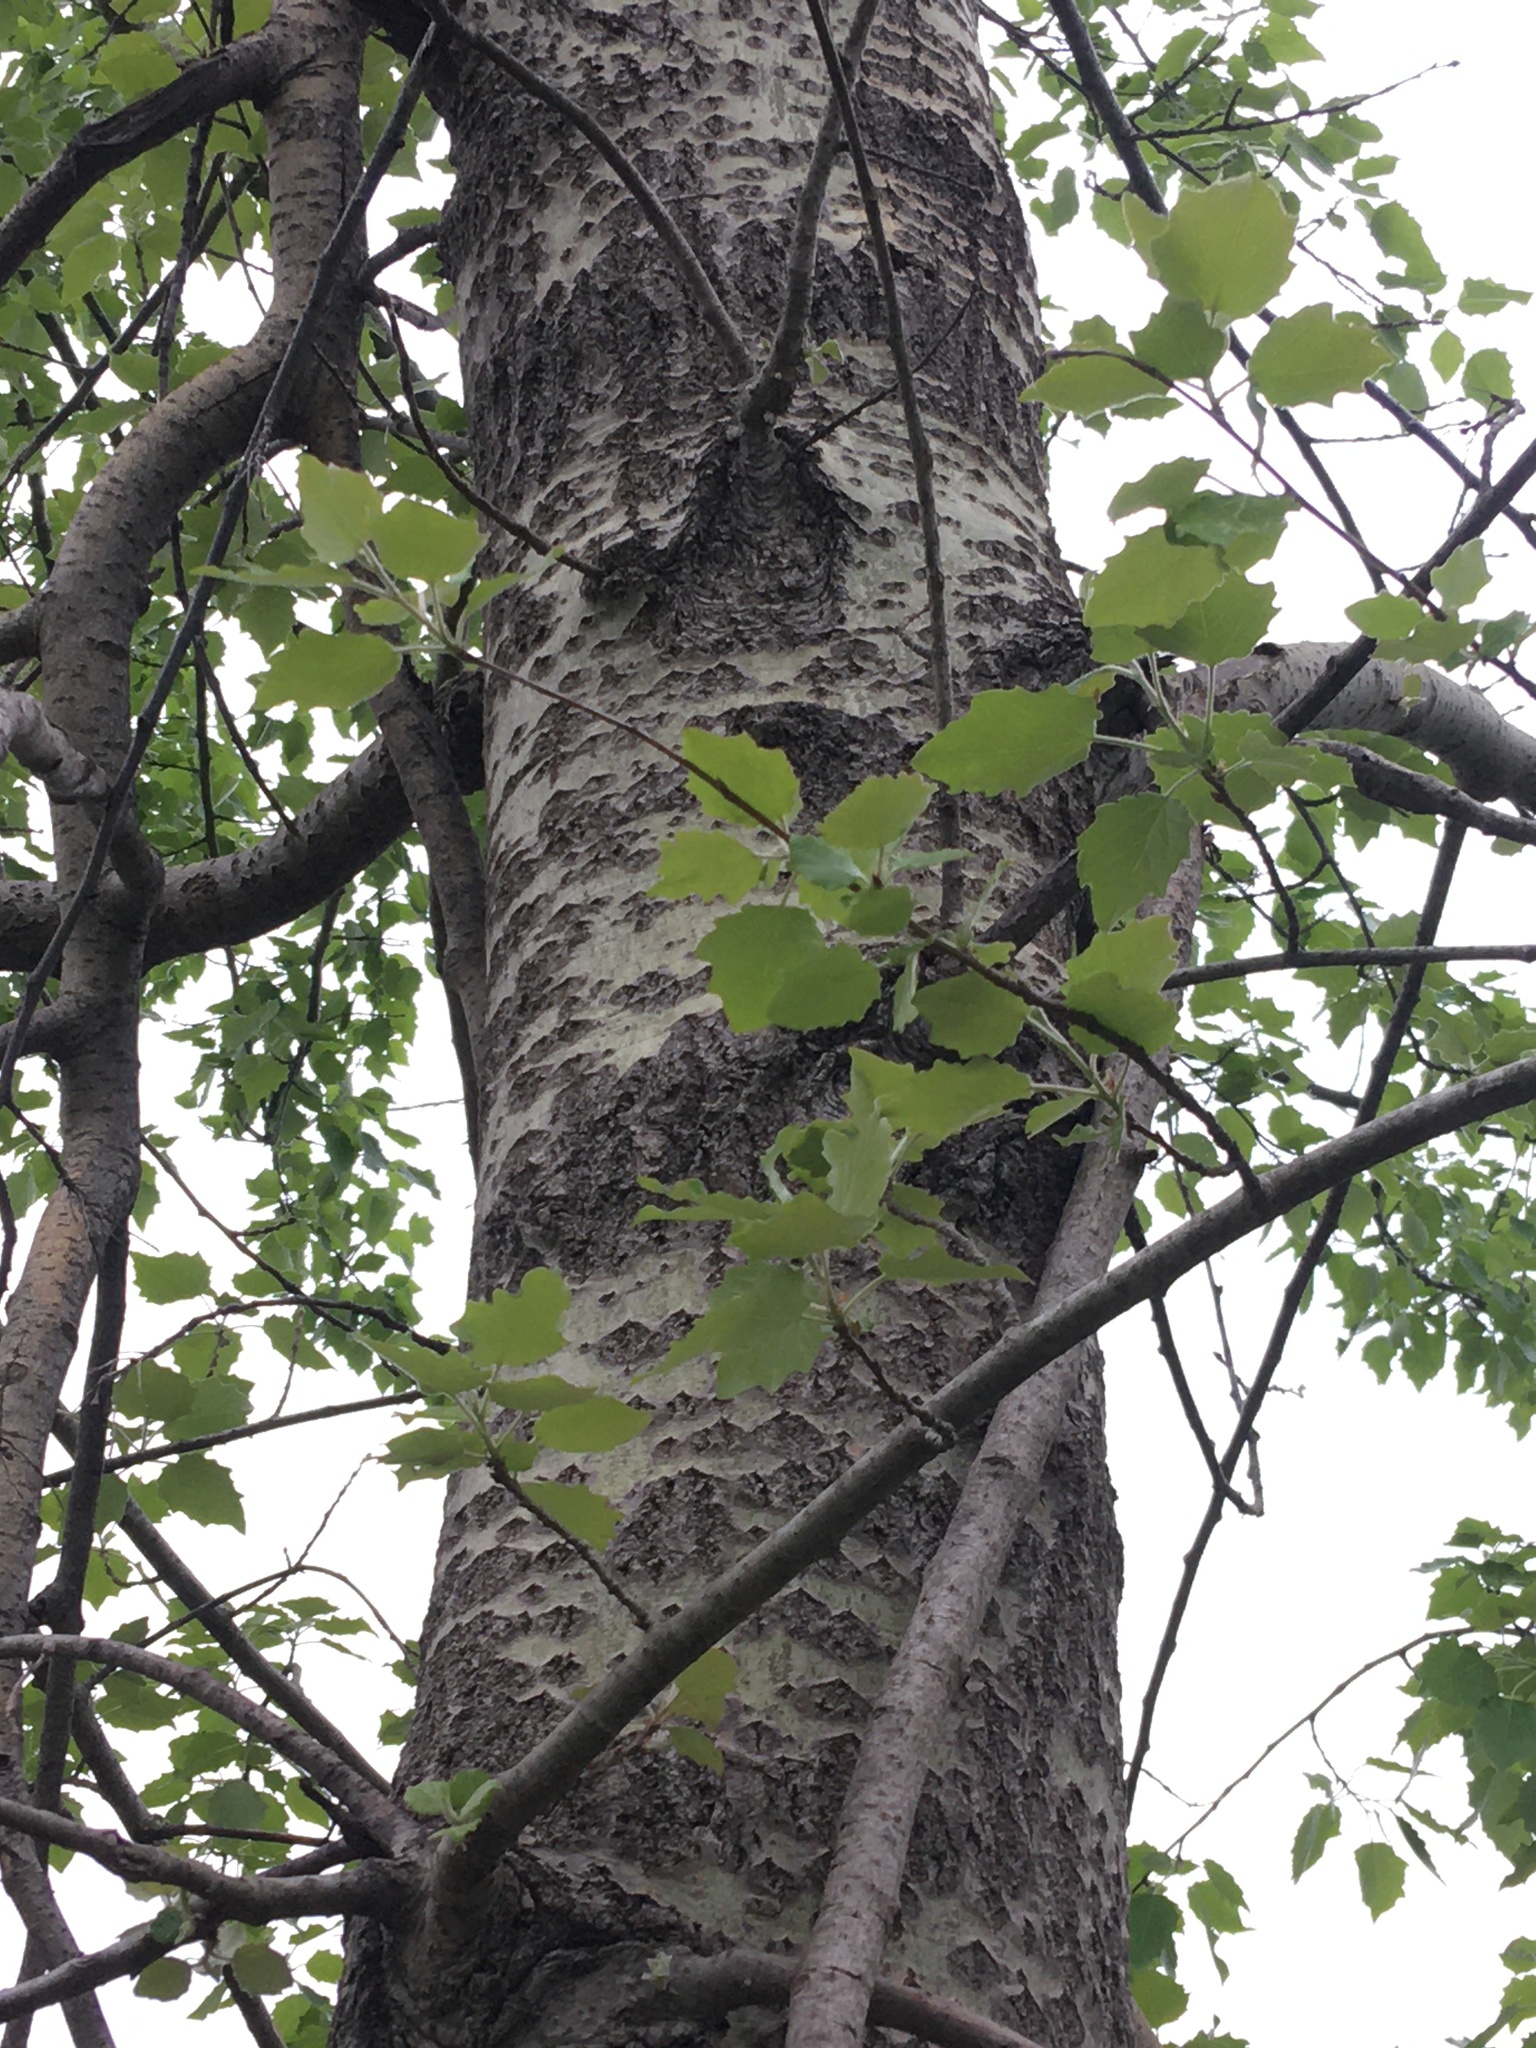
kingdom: Plantae
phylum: Tracheophyta
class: Magnoliopsida
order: Malpighiales
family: Salicaceae
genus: Populus
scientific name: Populus alba
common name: White poplar
